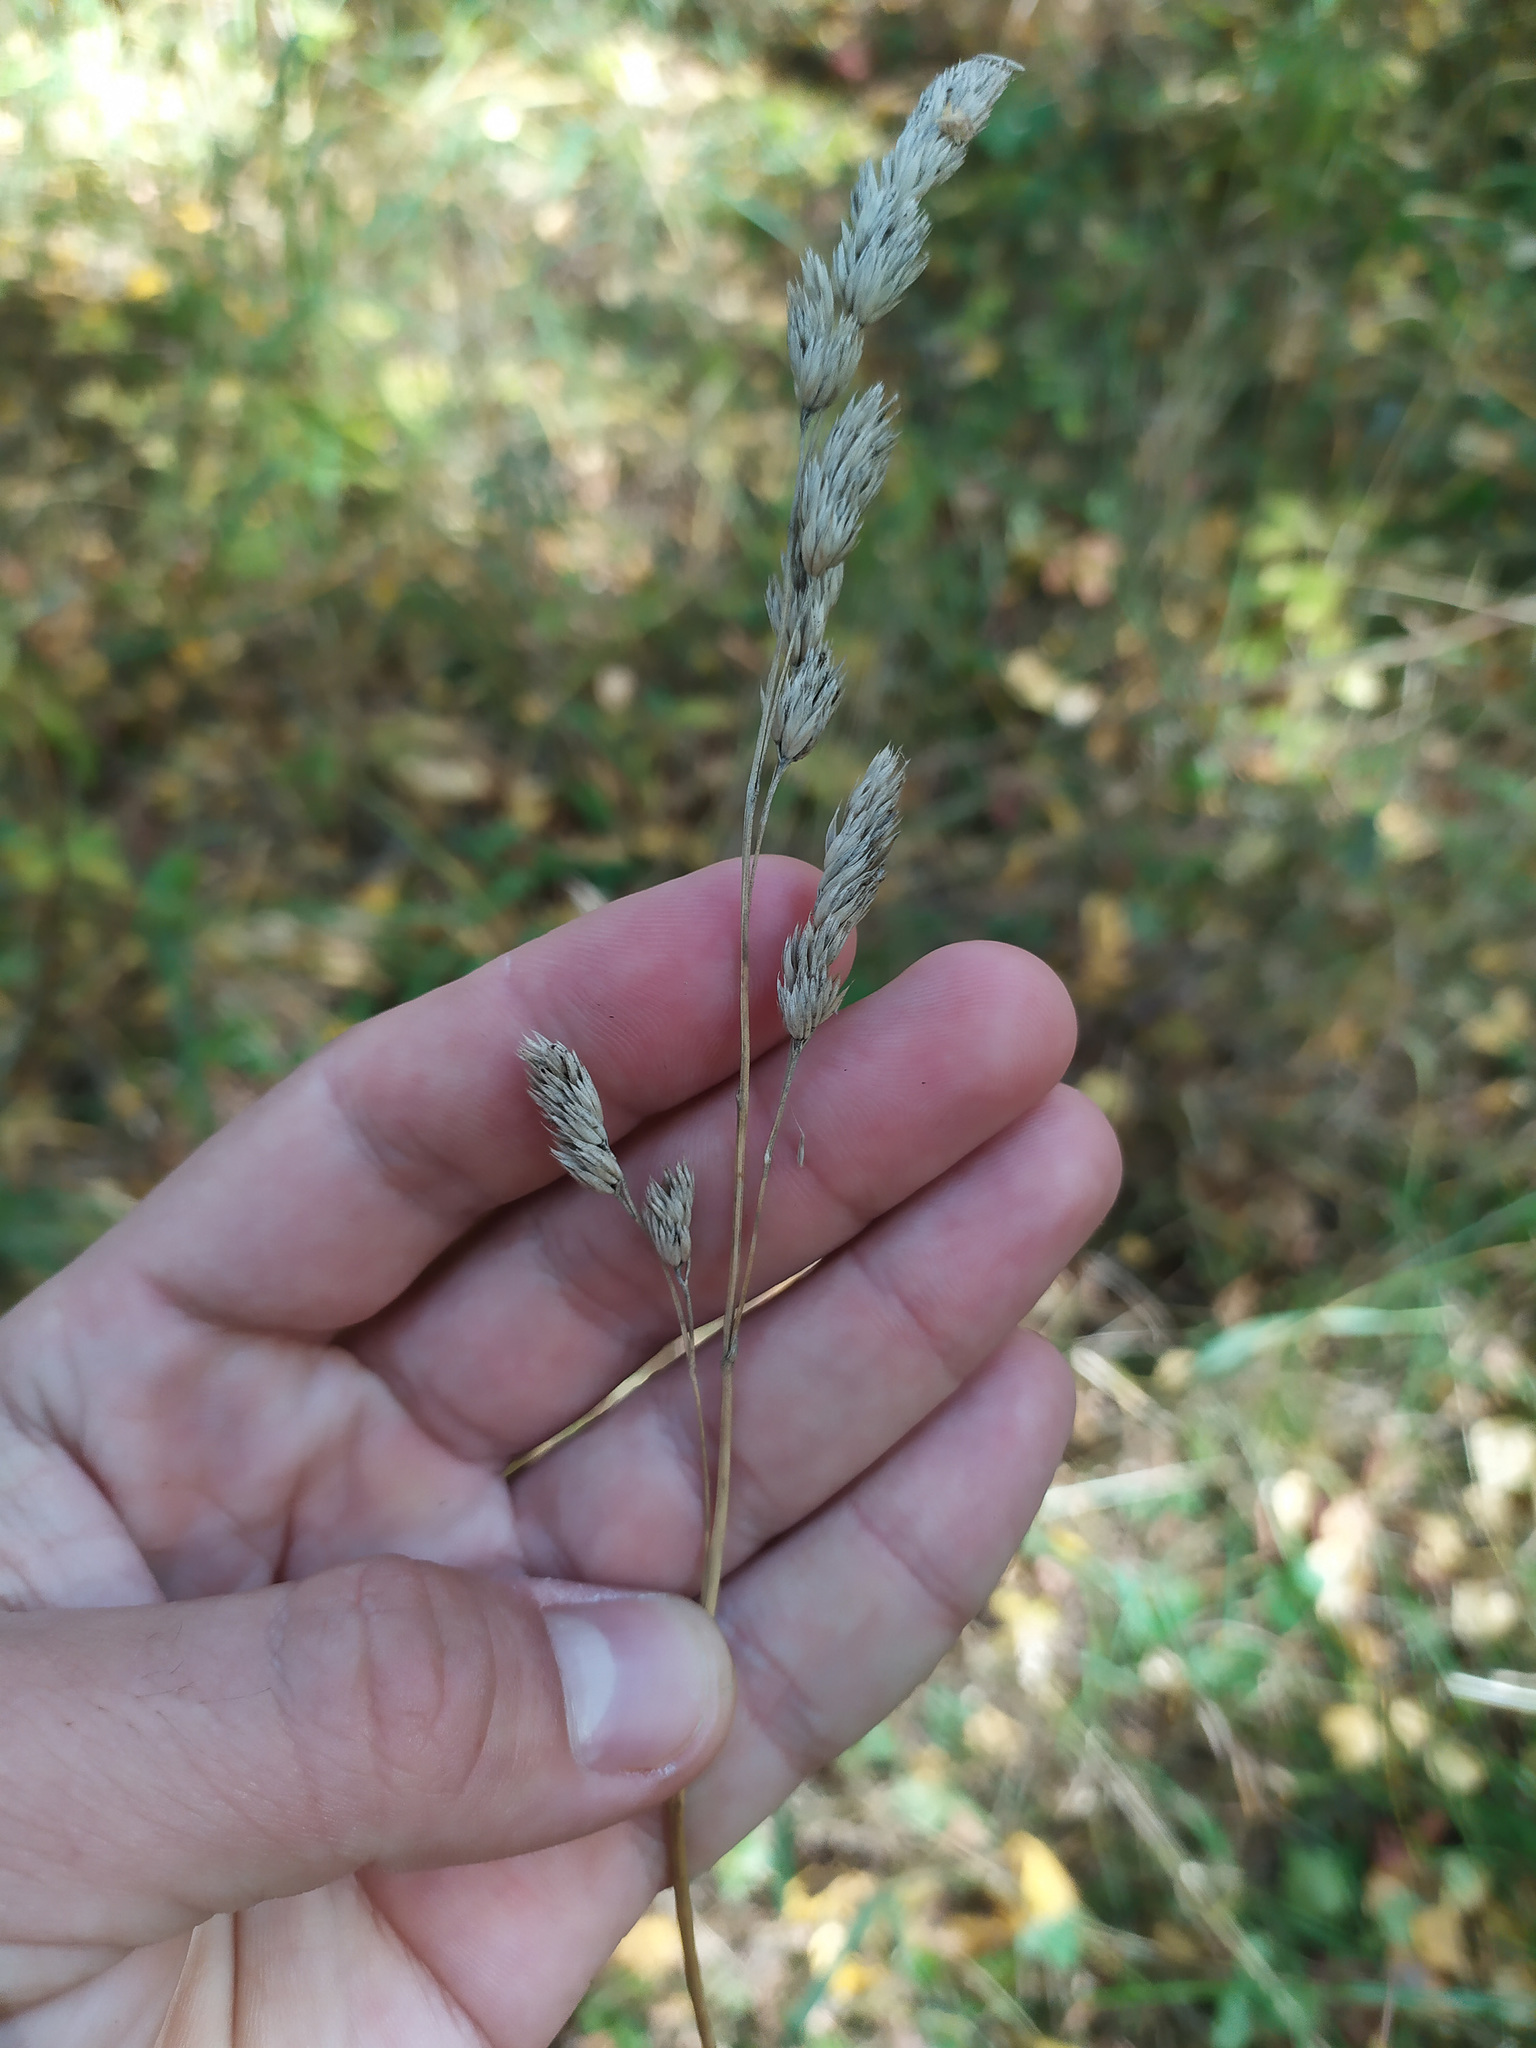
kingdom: Plantae
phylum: Tracheophyta
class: Liliopsida
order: Poales
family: Poaceae
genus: Dactylis
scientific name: Dactylis glomerata
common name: Orchardgrass
